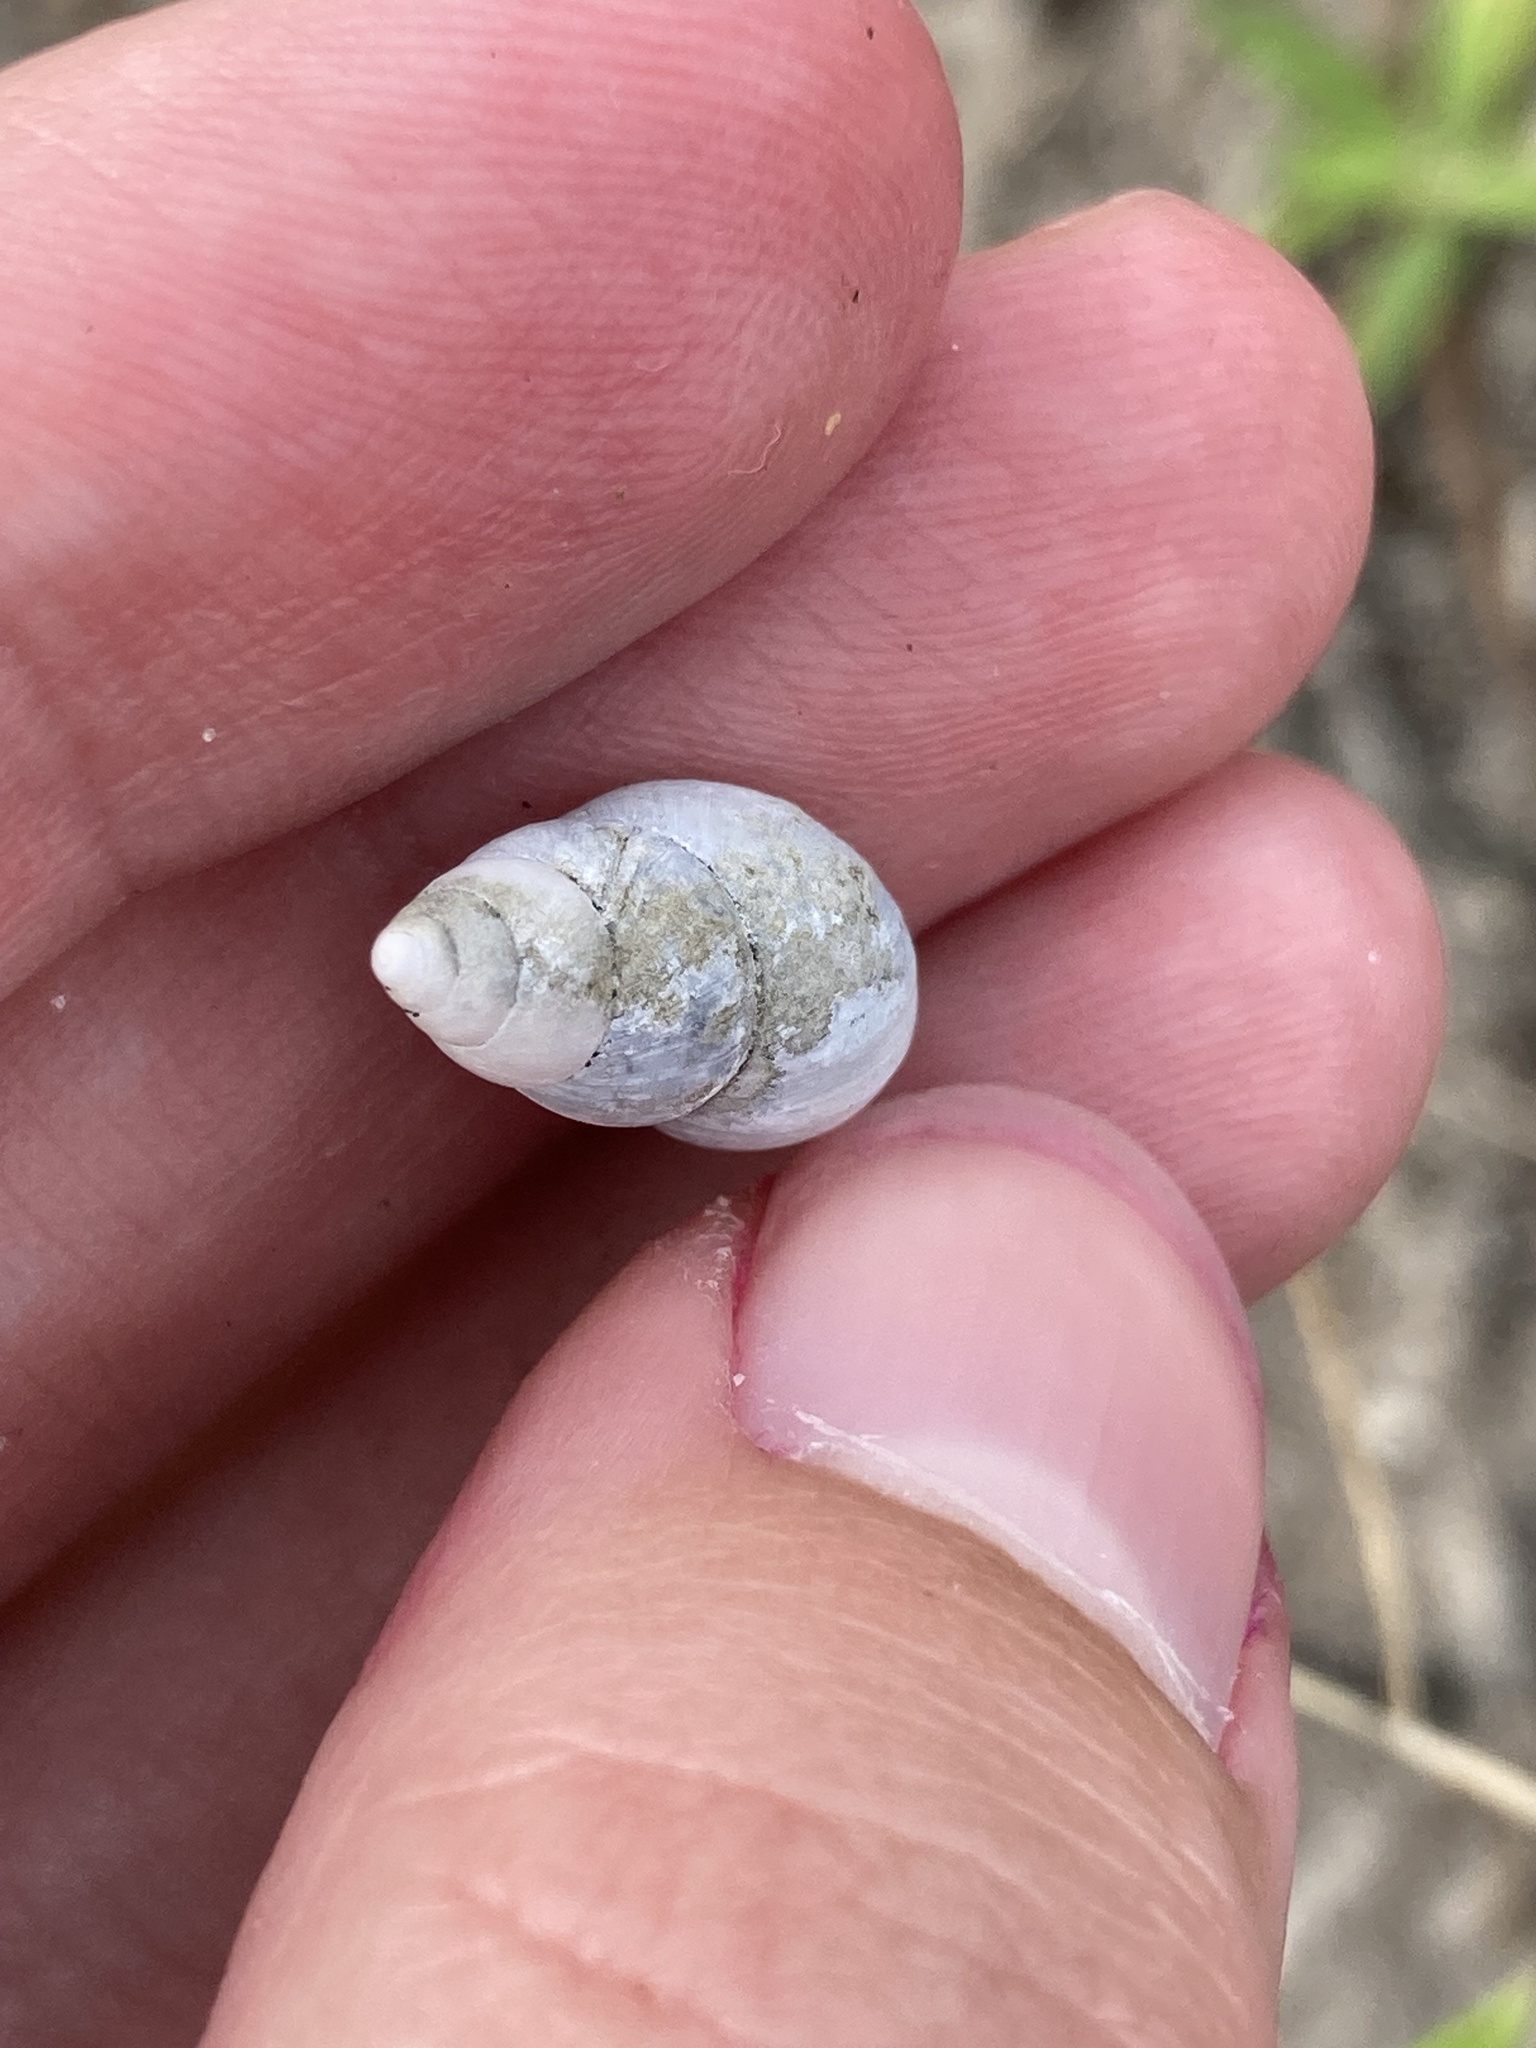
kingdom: Animalia
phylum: Mollusca
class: Gastropoda
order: Stylommatophora
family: Bulimulidae
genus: Bulimulus
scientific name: Bulimulus bonariensis
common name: Snail
